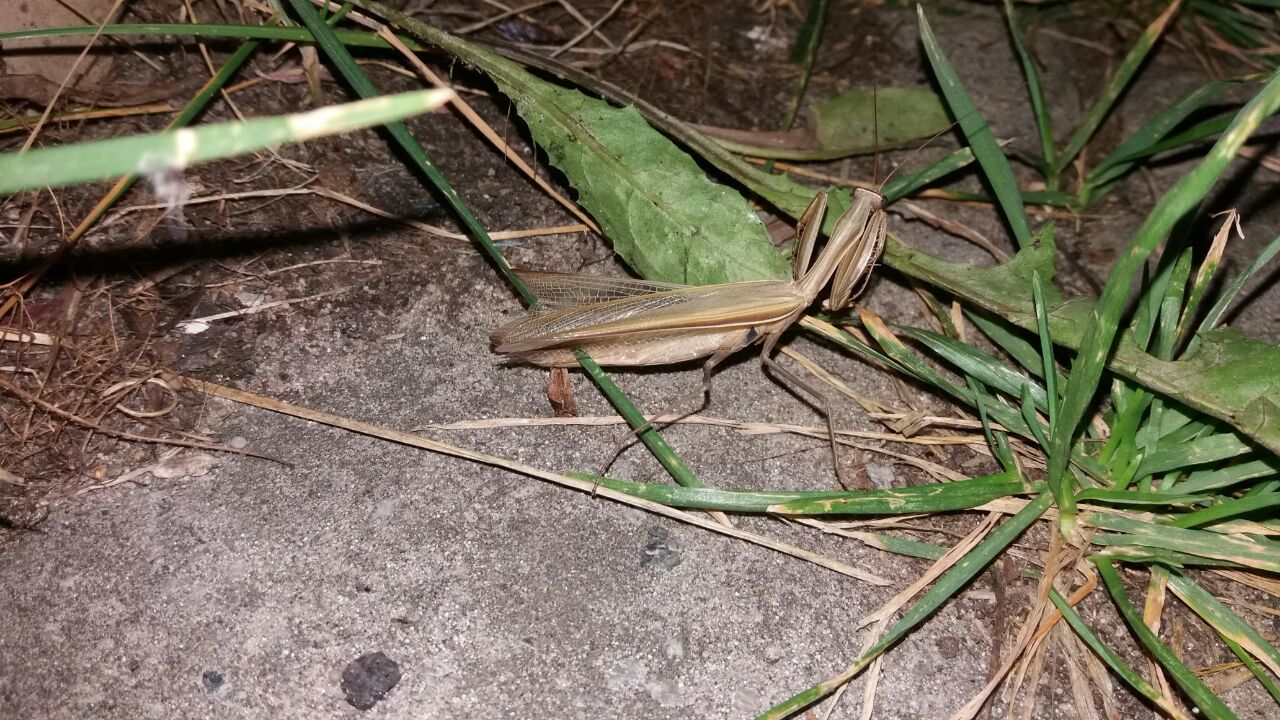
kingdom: Animalia
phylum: Arthropoda
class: Insecta
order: Mantodea
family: Mantidae
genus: Mantis
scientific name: Mantis religiosa
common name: Praying mantis
